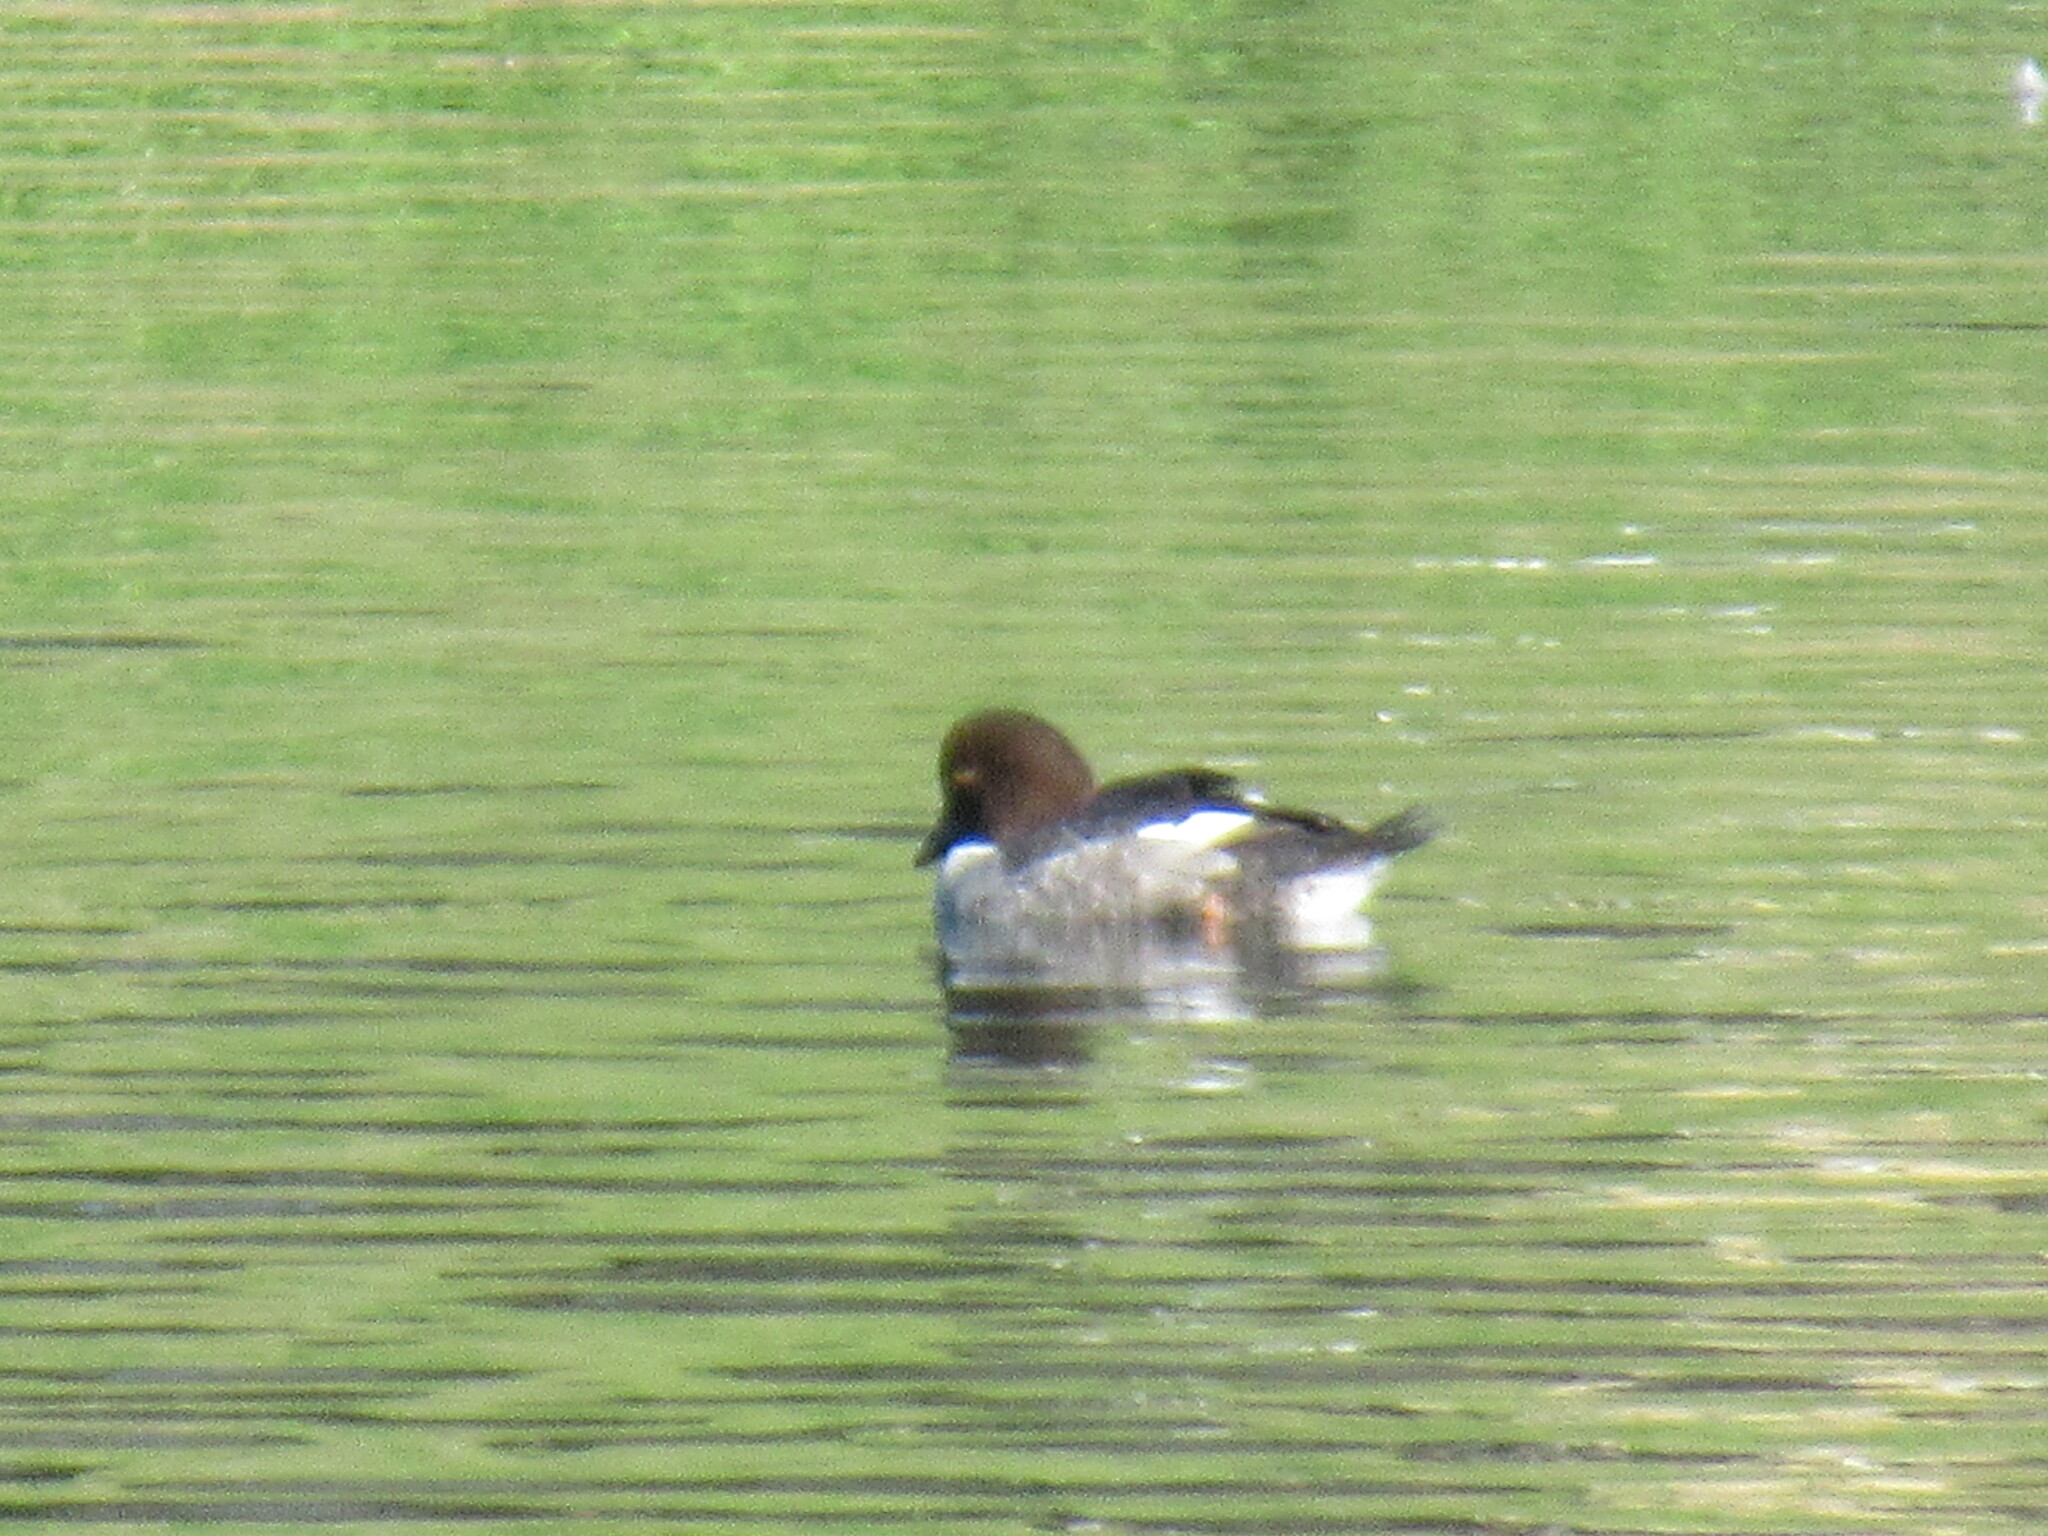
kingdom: Animalia
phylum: Chordata
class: Aves
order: Anseriformes
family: Anatidae
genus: Bucephala
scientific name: Bucephala clangula
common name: Common goldeneye
